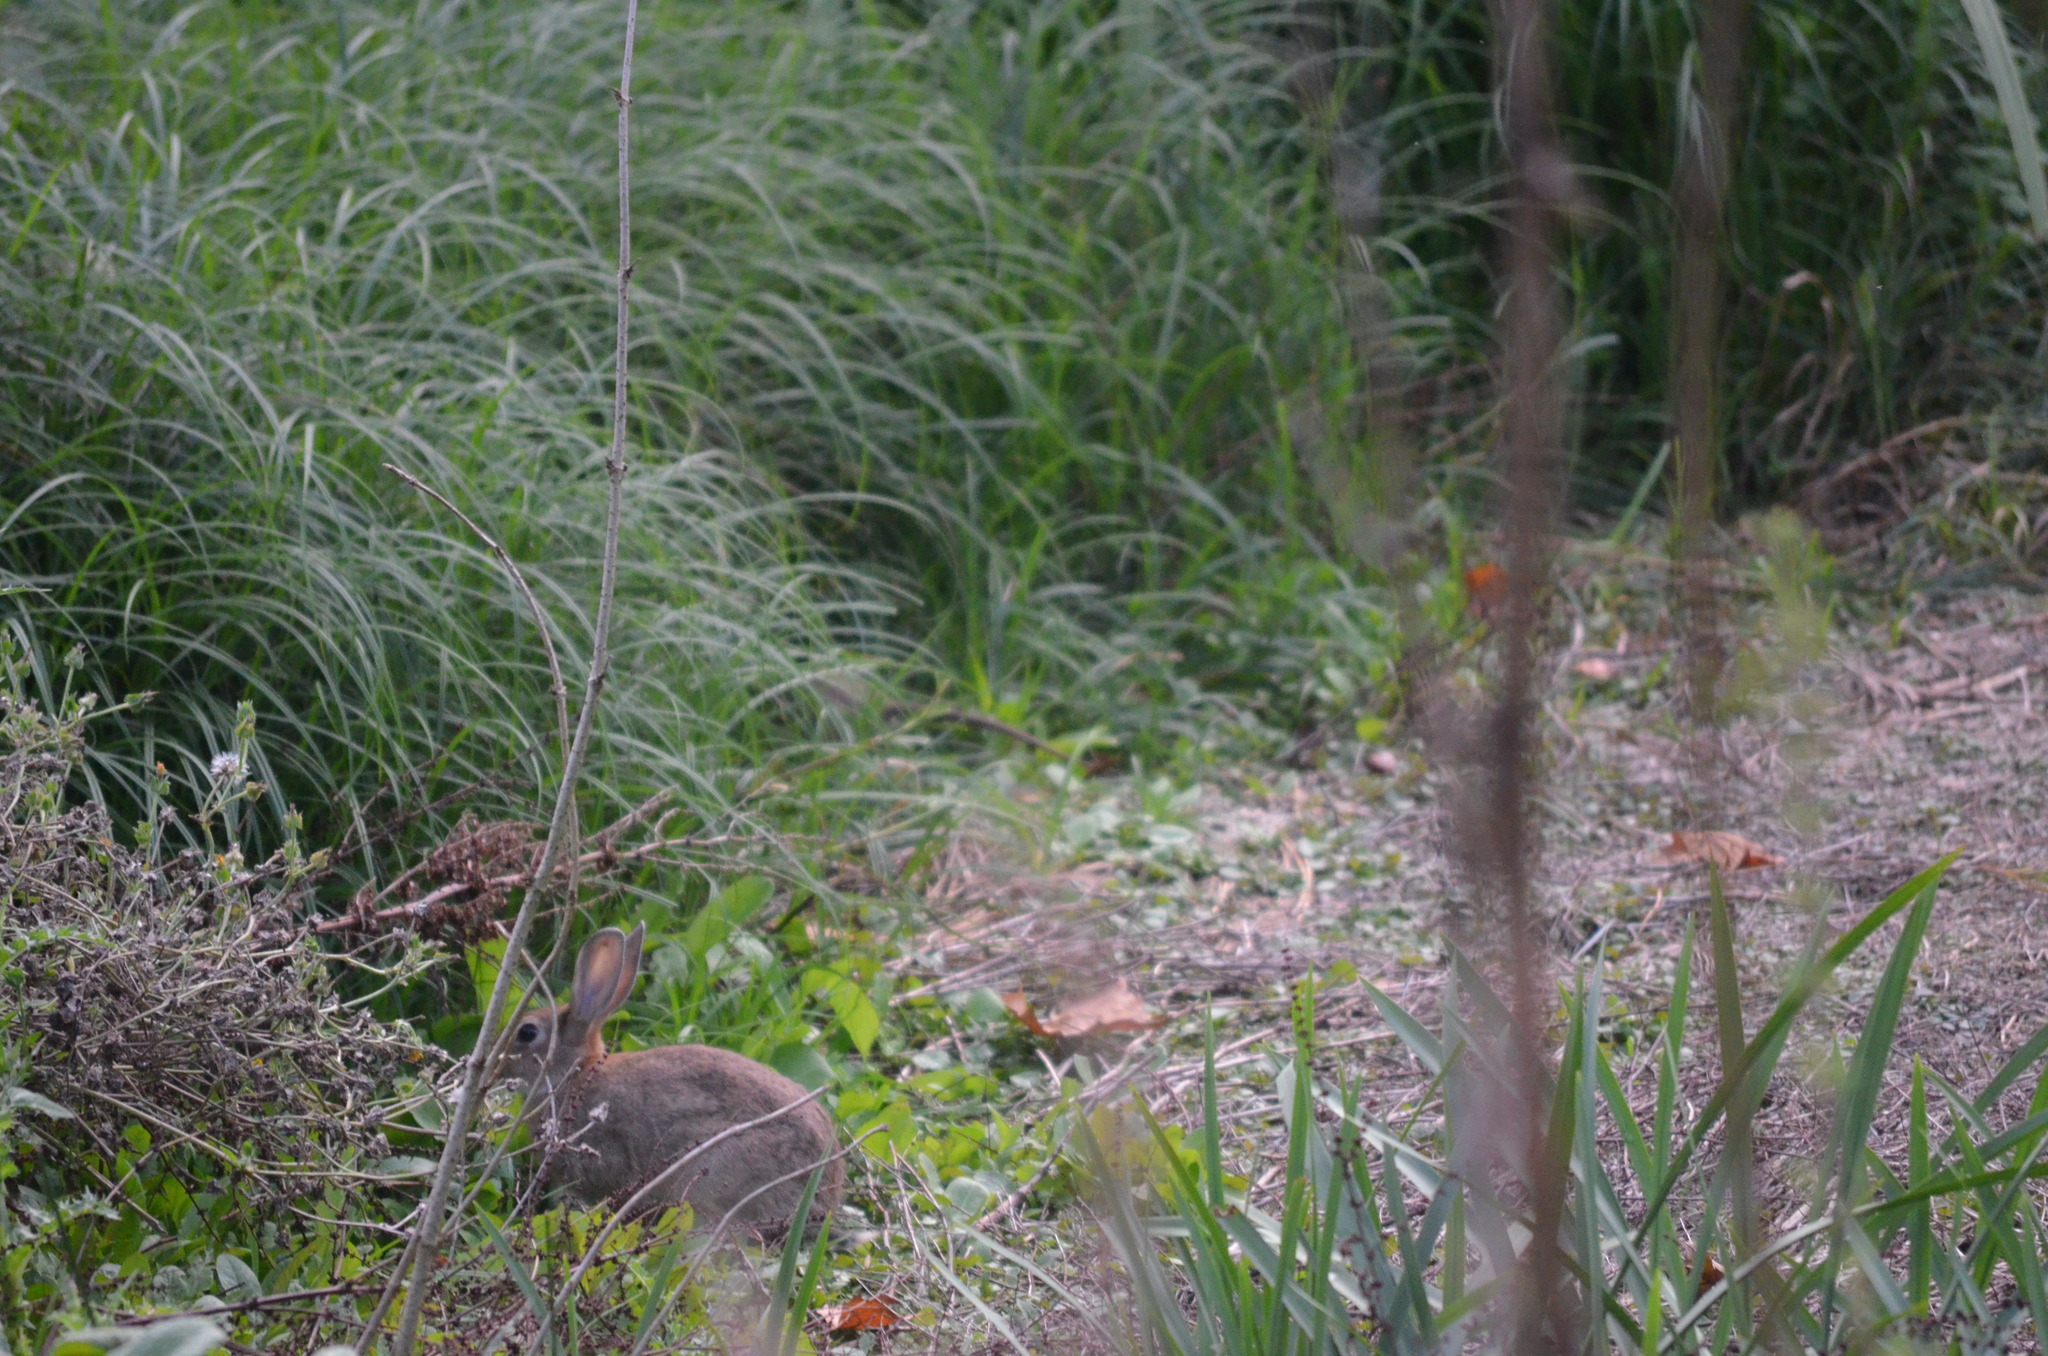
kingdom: Animalia
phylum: Chordata
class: Mammalia
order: Lagomorpha
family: Leporidae
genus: Oryctolagus
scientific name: Oryctolagus cuniculus
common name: European rabbit
